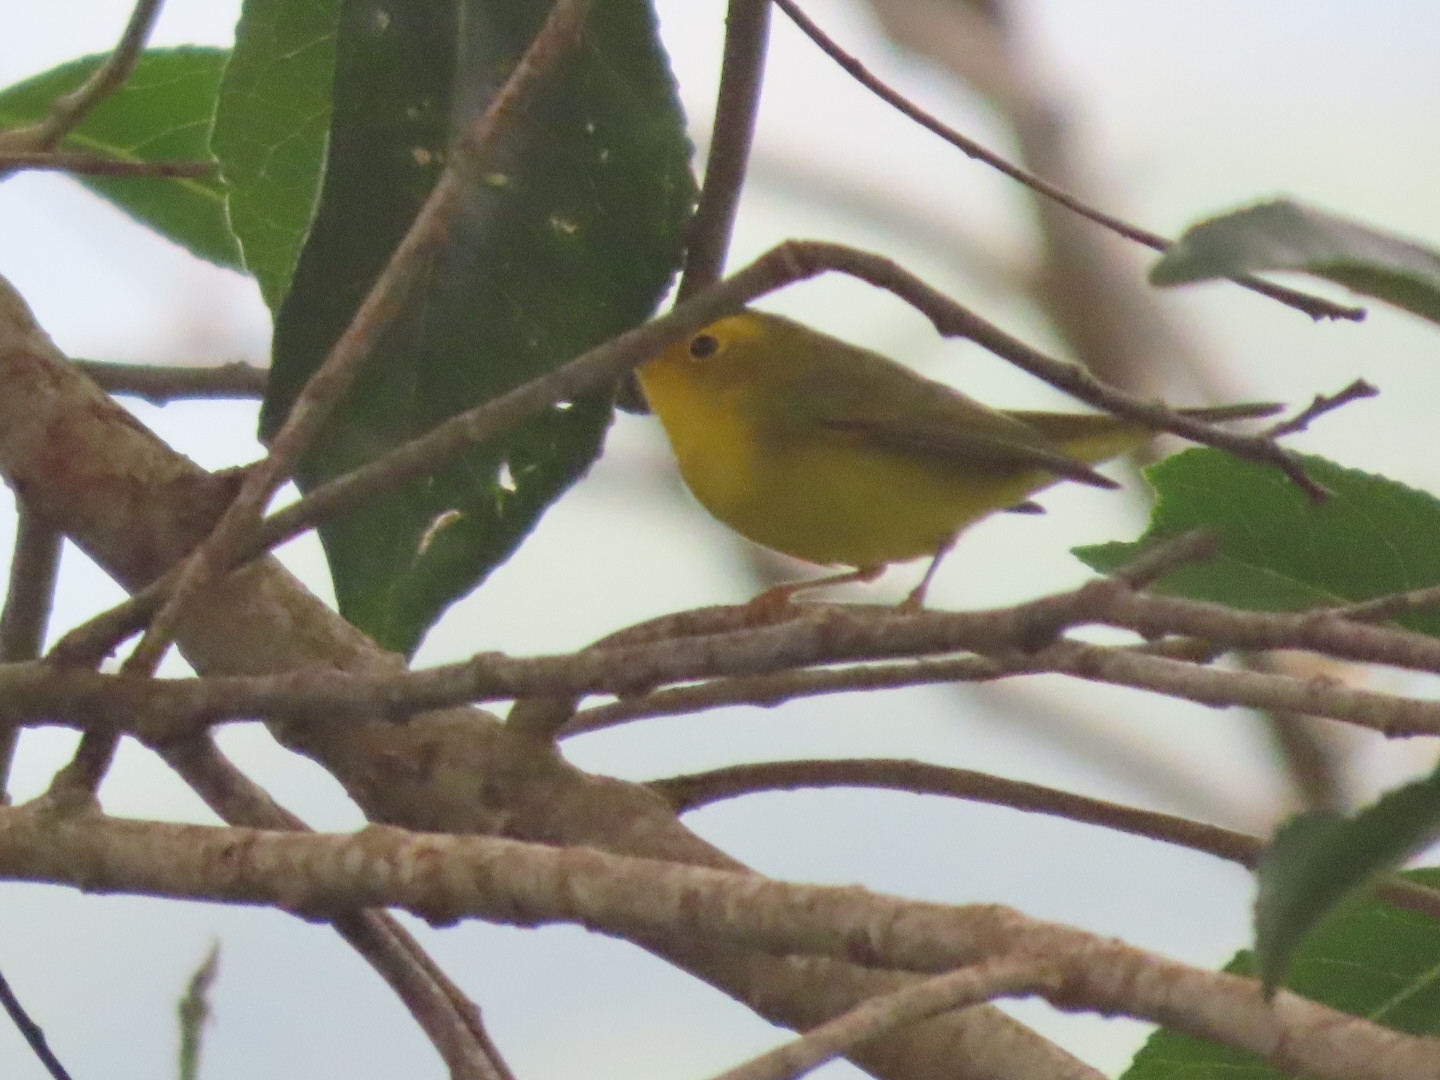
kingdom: Animalia
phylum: Chordata
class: Aves
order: Passeriformes
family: Parulidae
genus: Cardellina
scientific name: Cardellina pusilla
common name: Wilson's warbler
